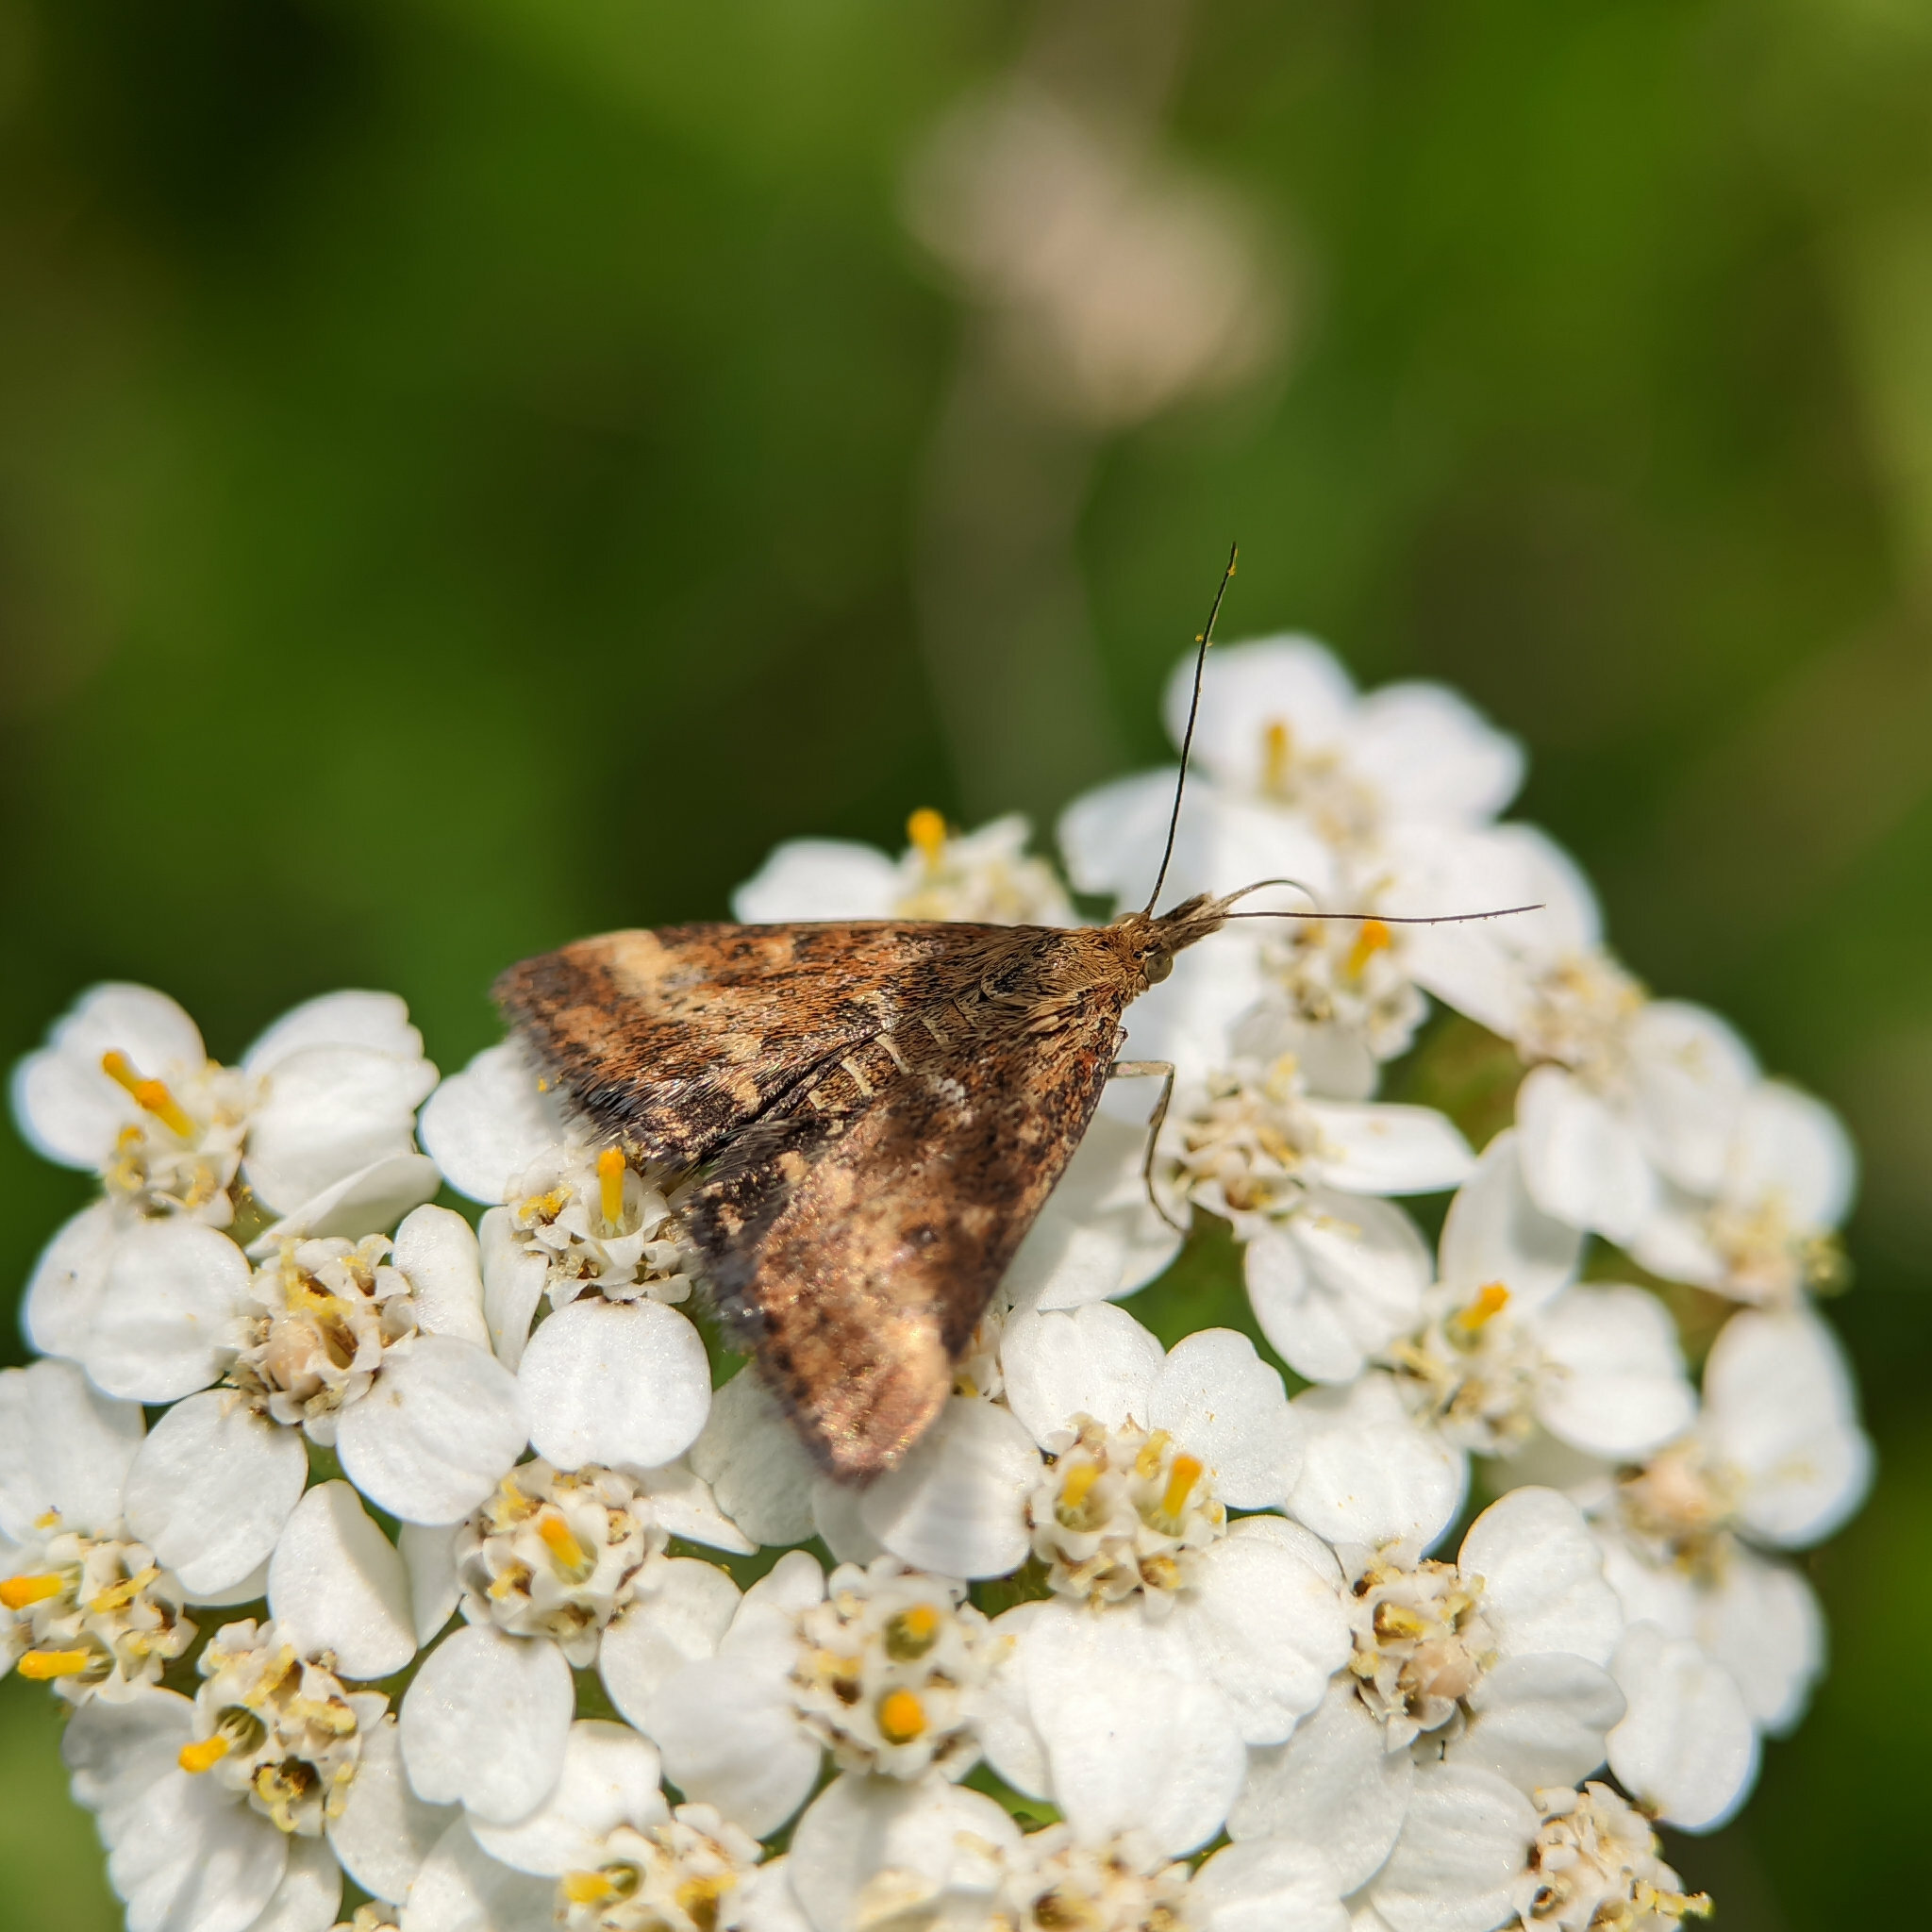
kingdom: Animalia
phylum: Arthropoda
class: Insecta
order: Lepidoptera
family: Crambidae
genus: Pyrausta
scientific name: Pyrausta despicata
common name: Straw-barred pearl
